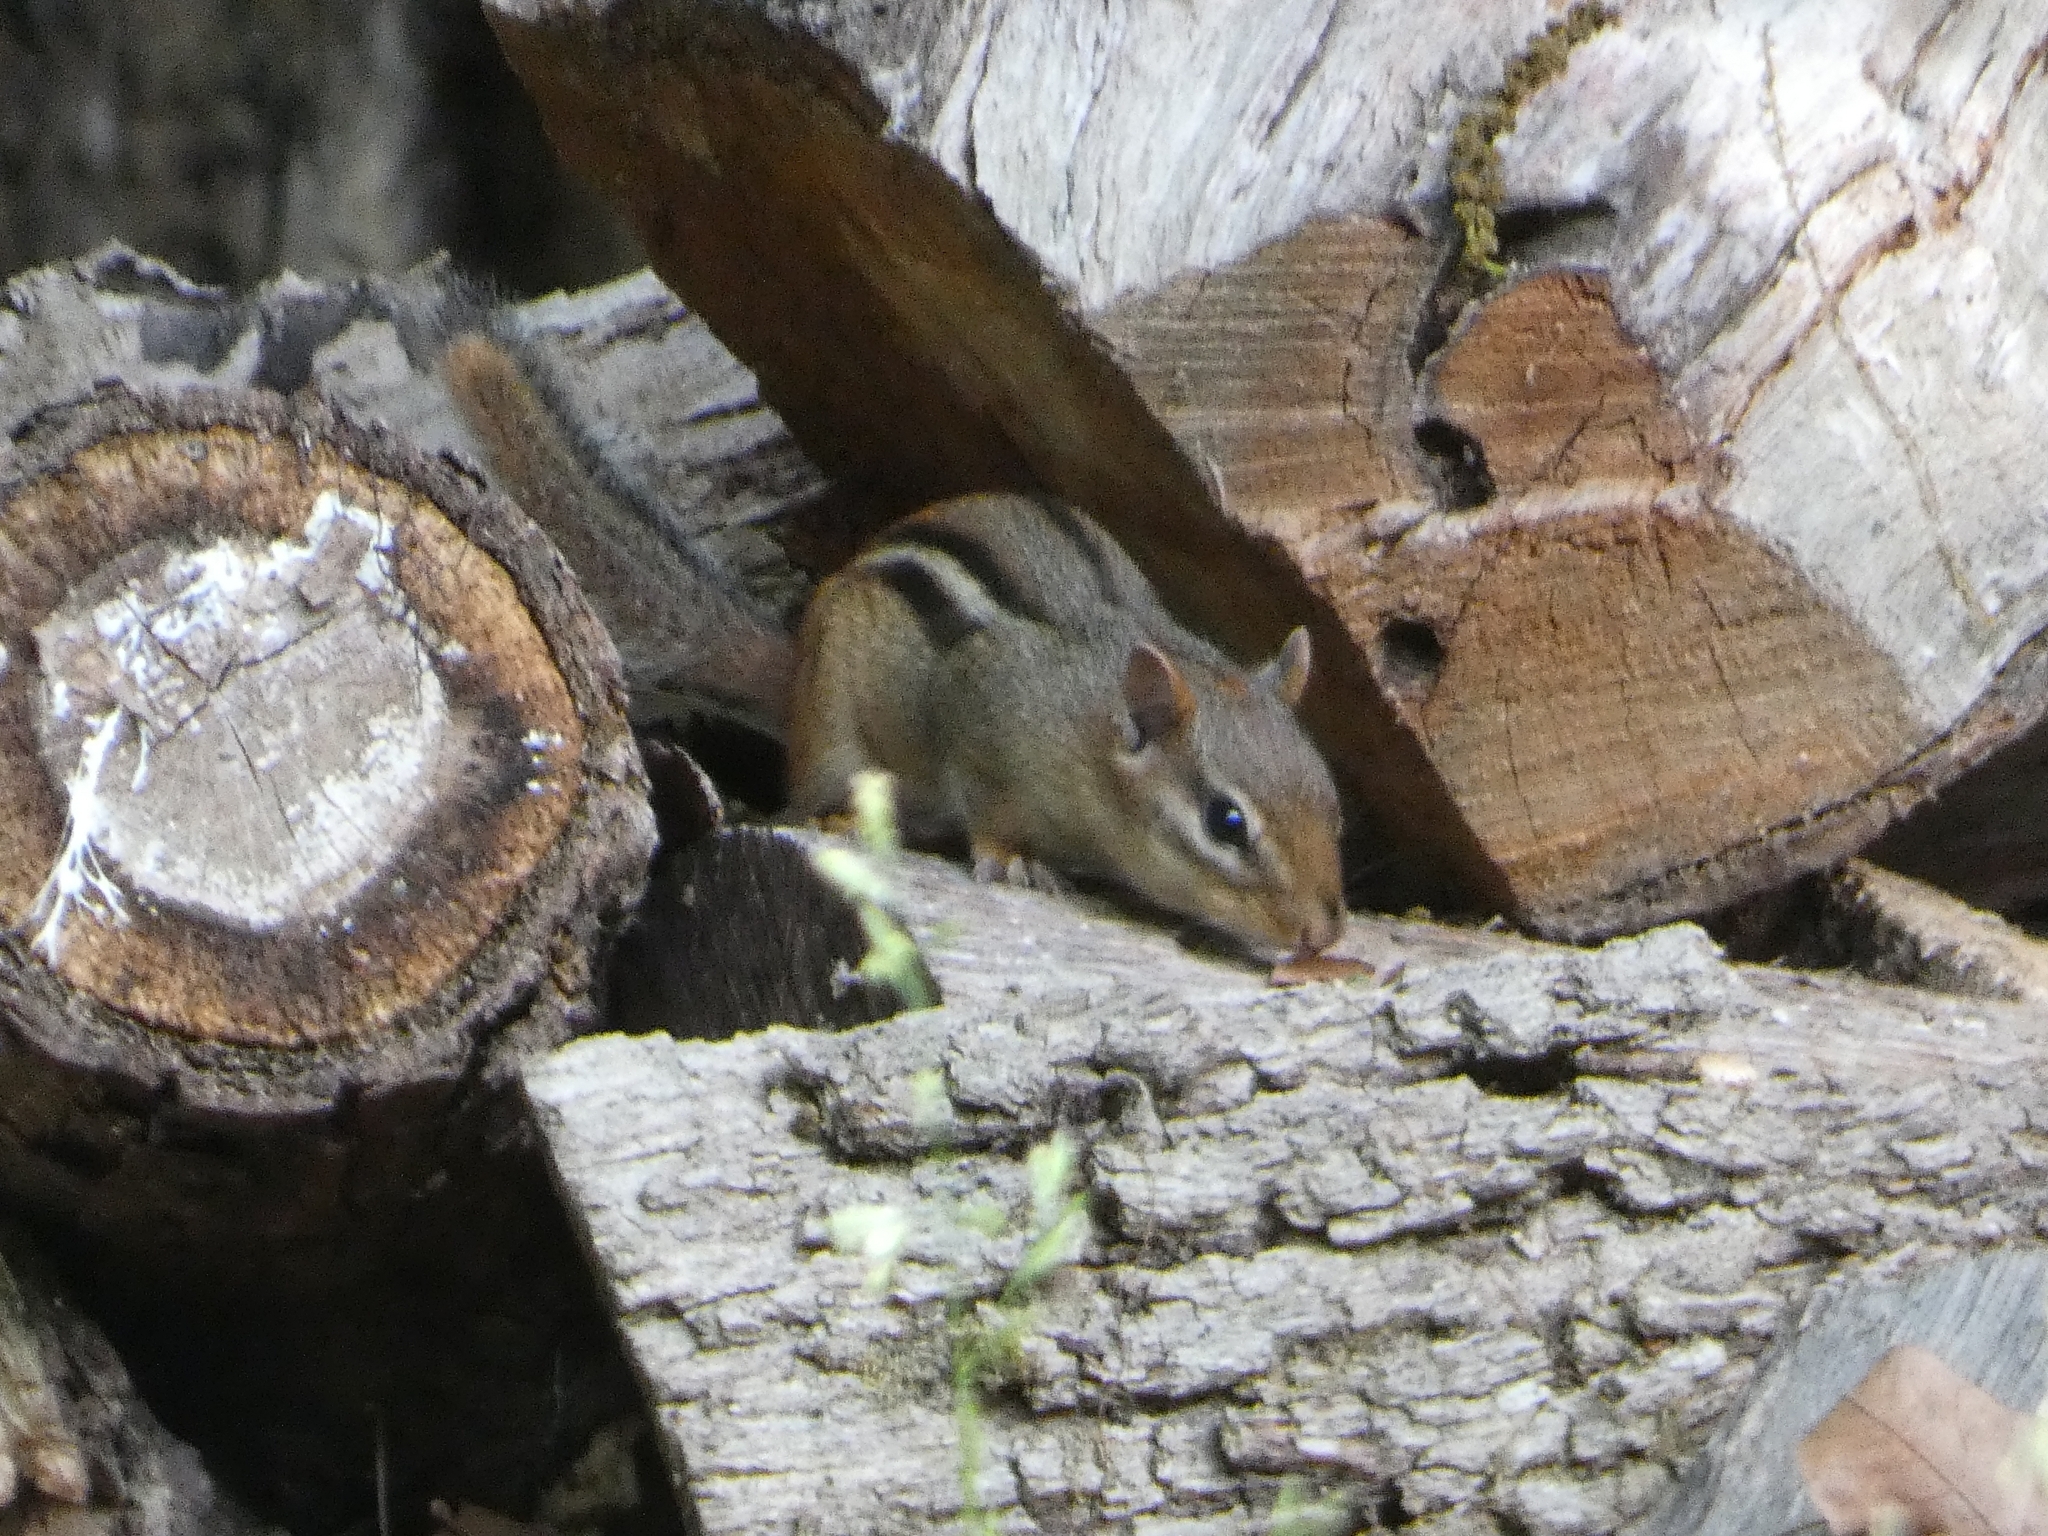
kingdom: Animalia
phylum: Chordata
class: Mammalia
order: Rodentia
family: Sciuridae
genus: Tamias
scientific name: Tamias striatus
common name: Eastern chipmunk
